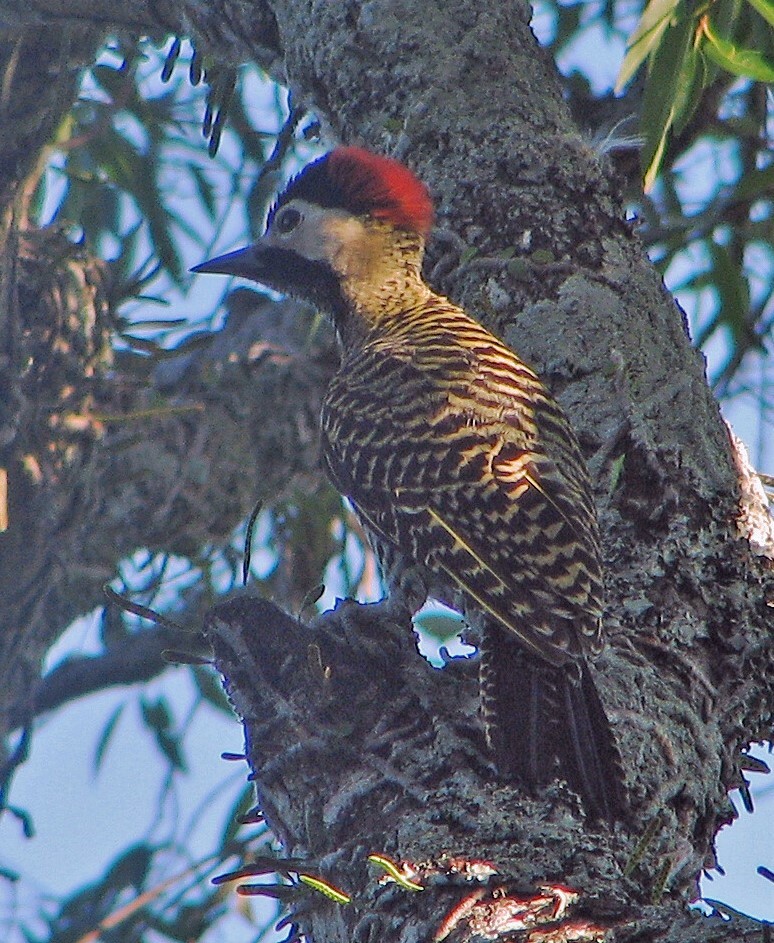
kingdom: Animalia
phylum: Chordata
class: Aves
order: Piciformes
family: Picidae
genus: Colaptes
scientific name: Colaptes melanochloros
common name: Green-barred woodpecker
